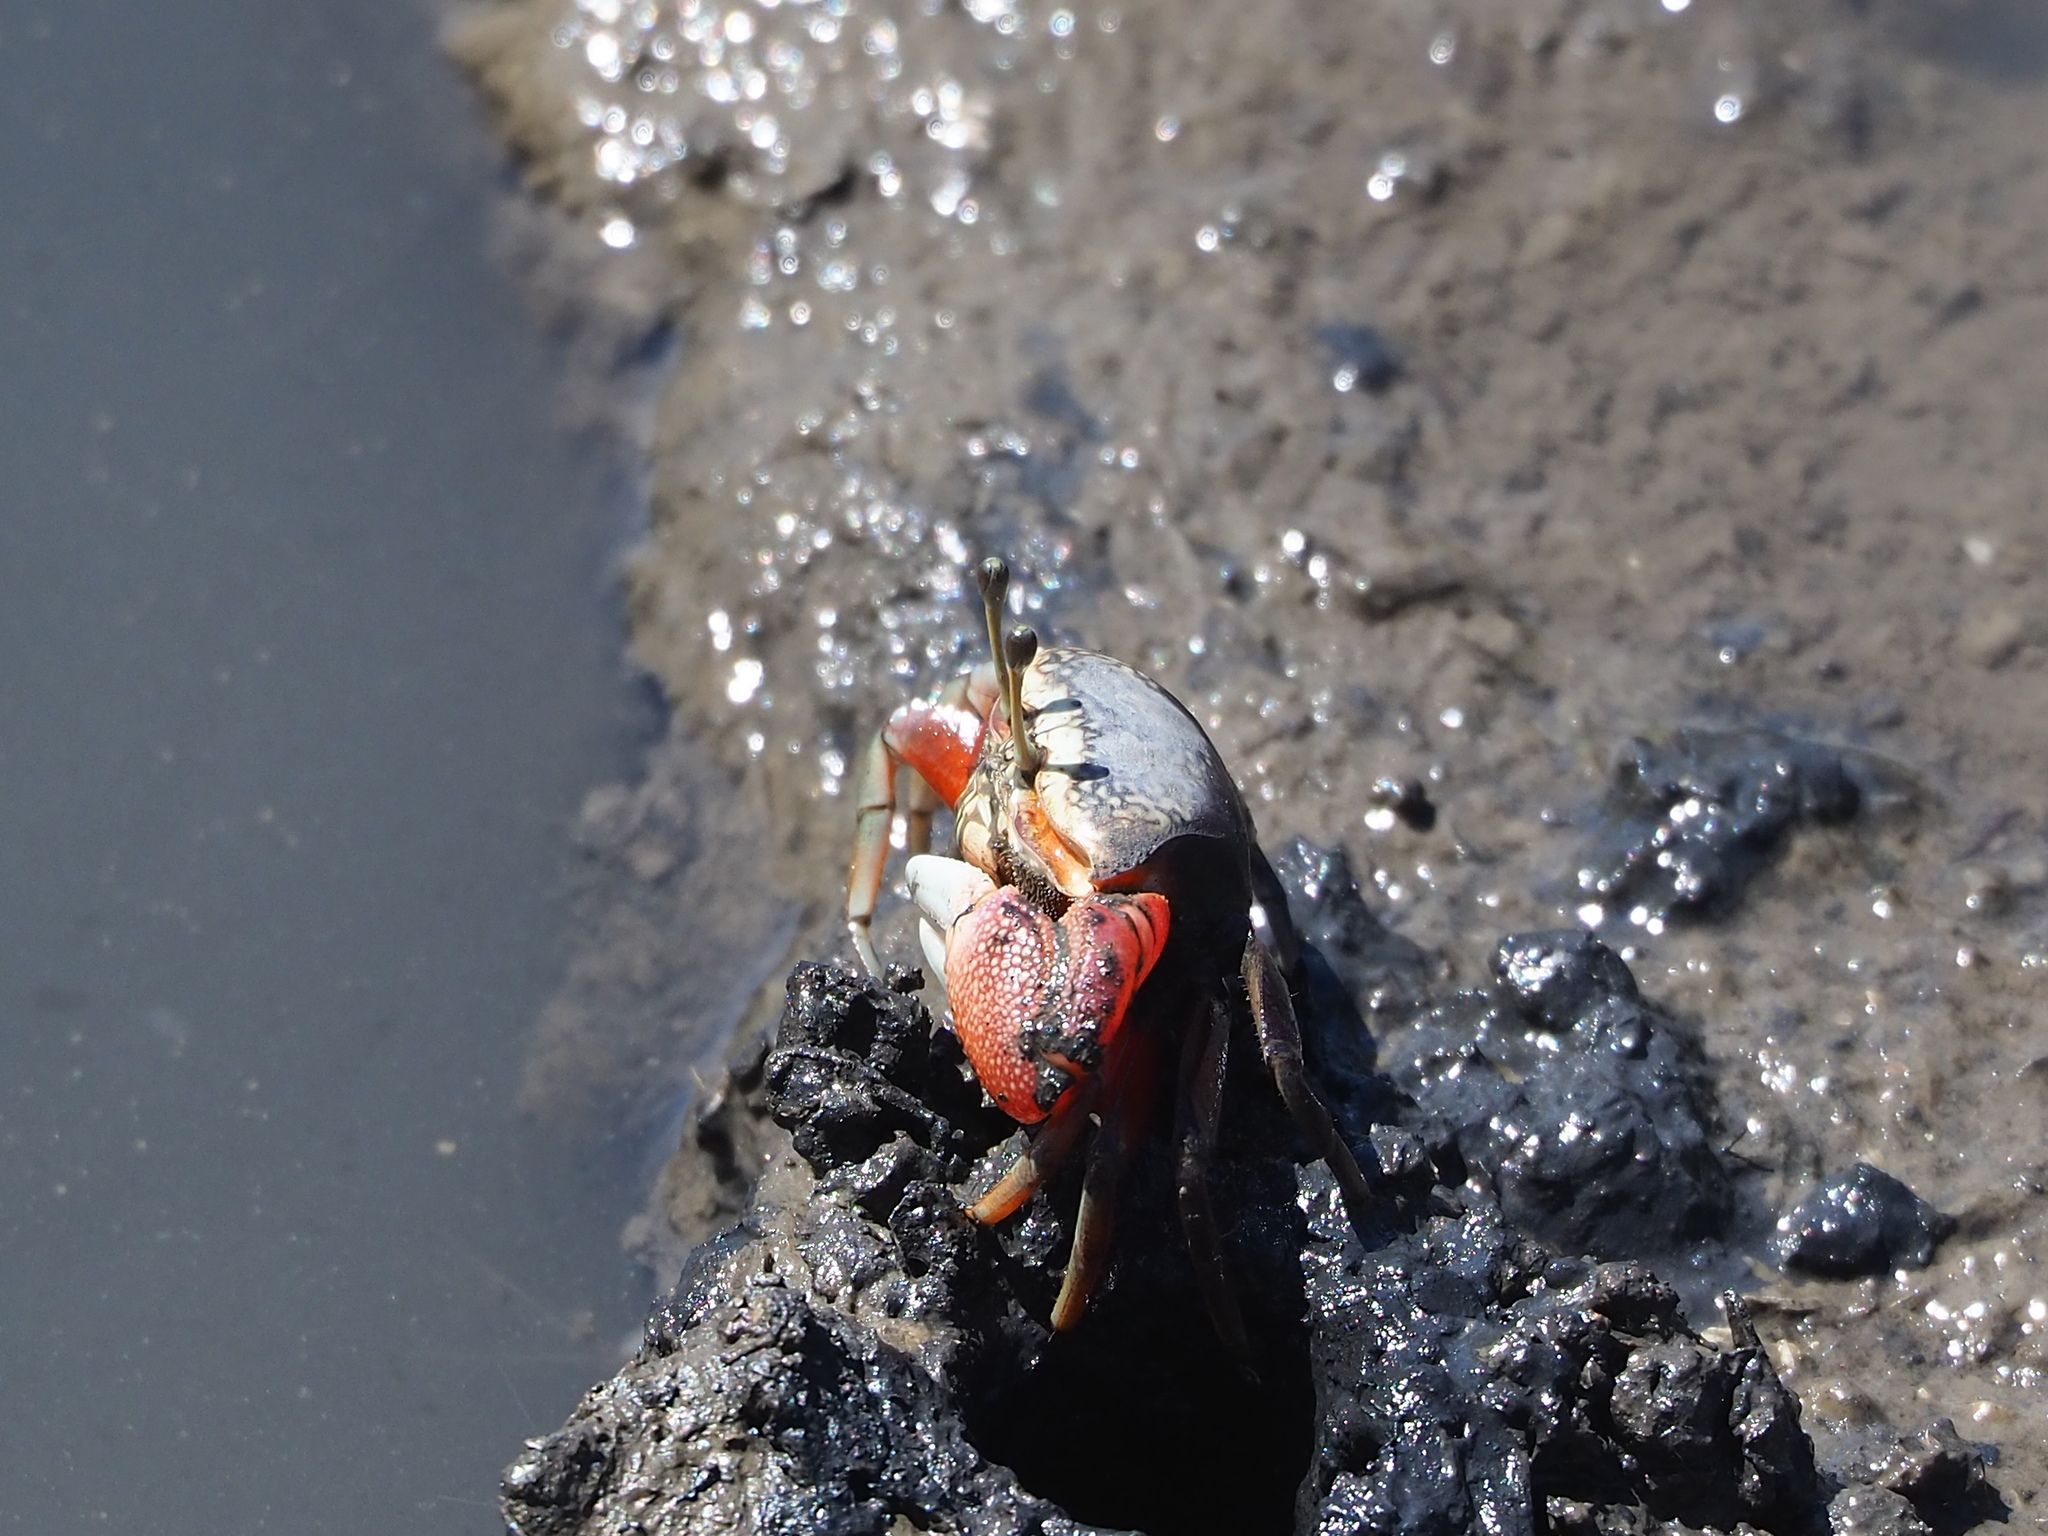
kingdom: Animalia
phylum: Arthropoda
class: Malacostraca
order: Decapoda
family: Ocypodidae
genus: Tubuca
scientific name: Tubuca arcuata
